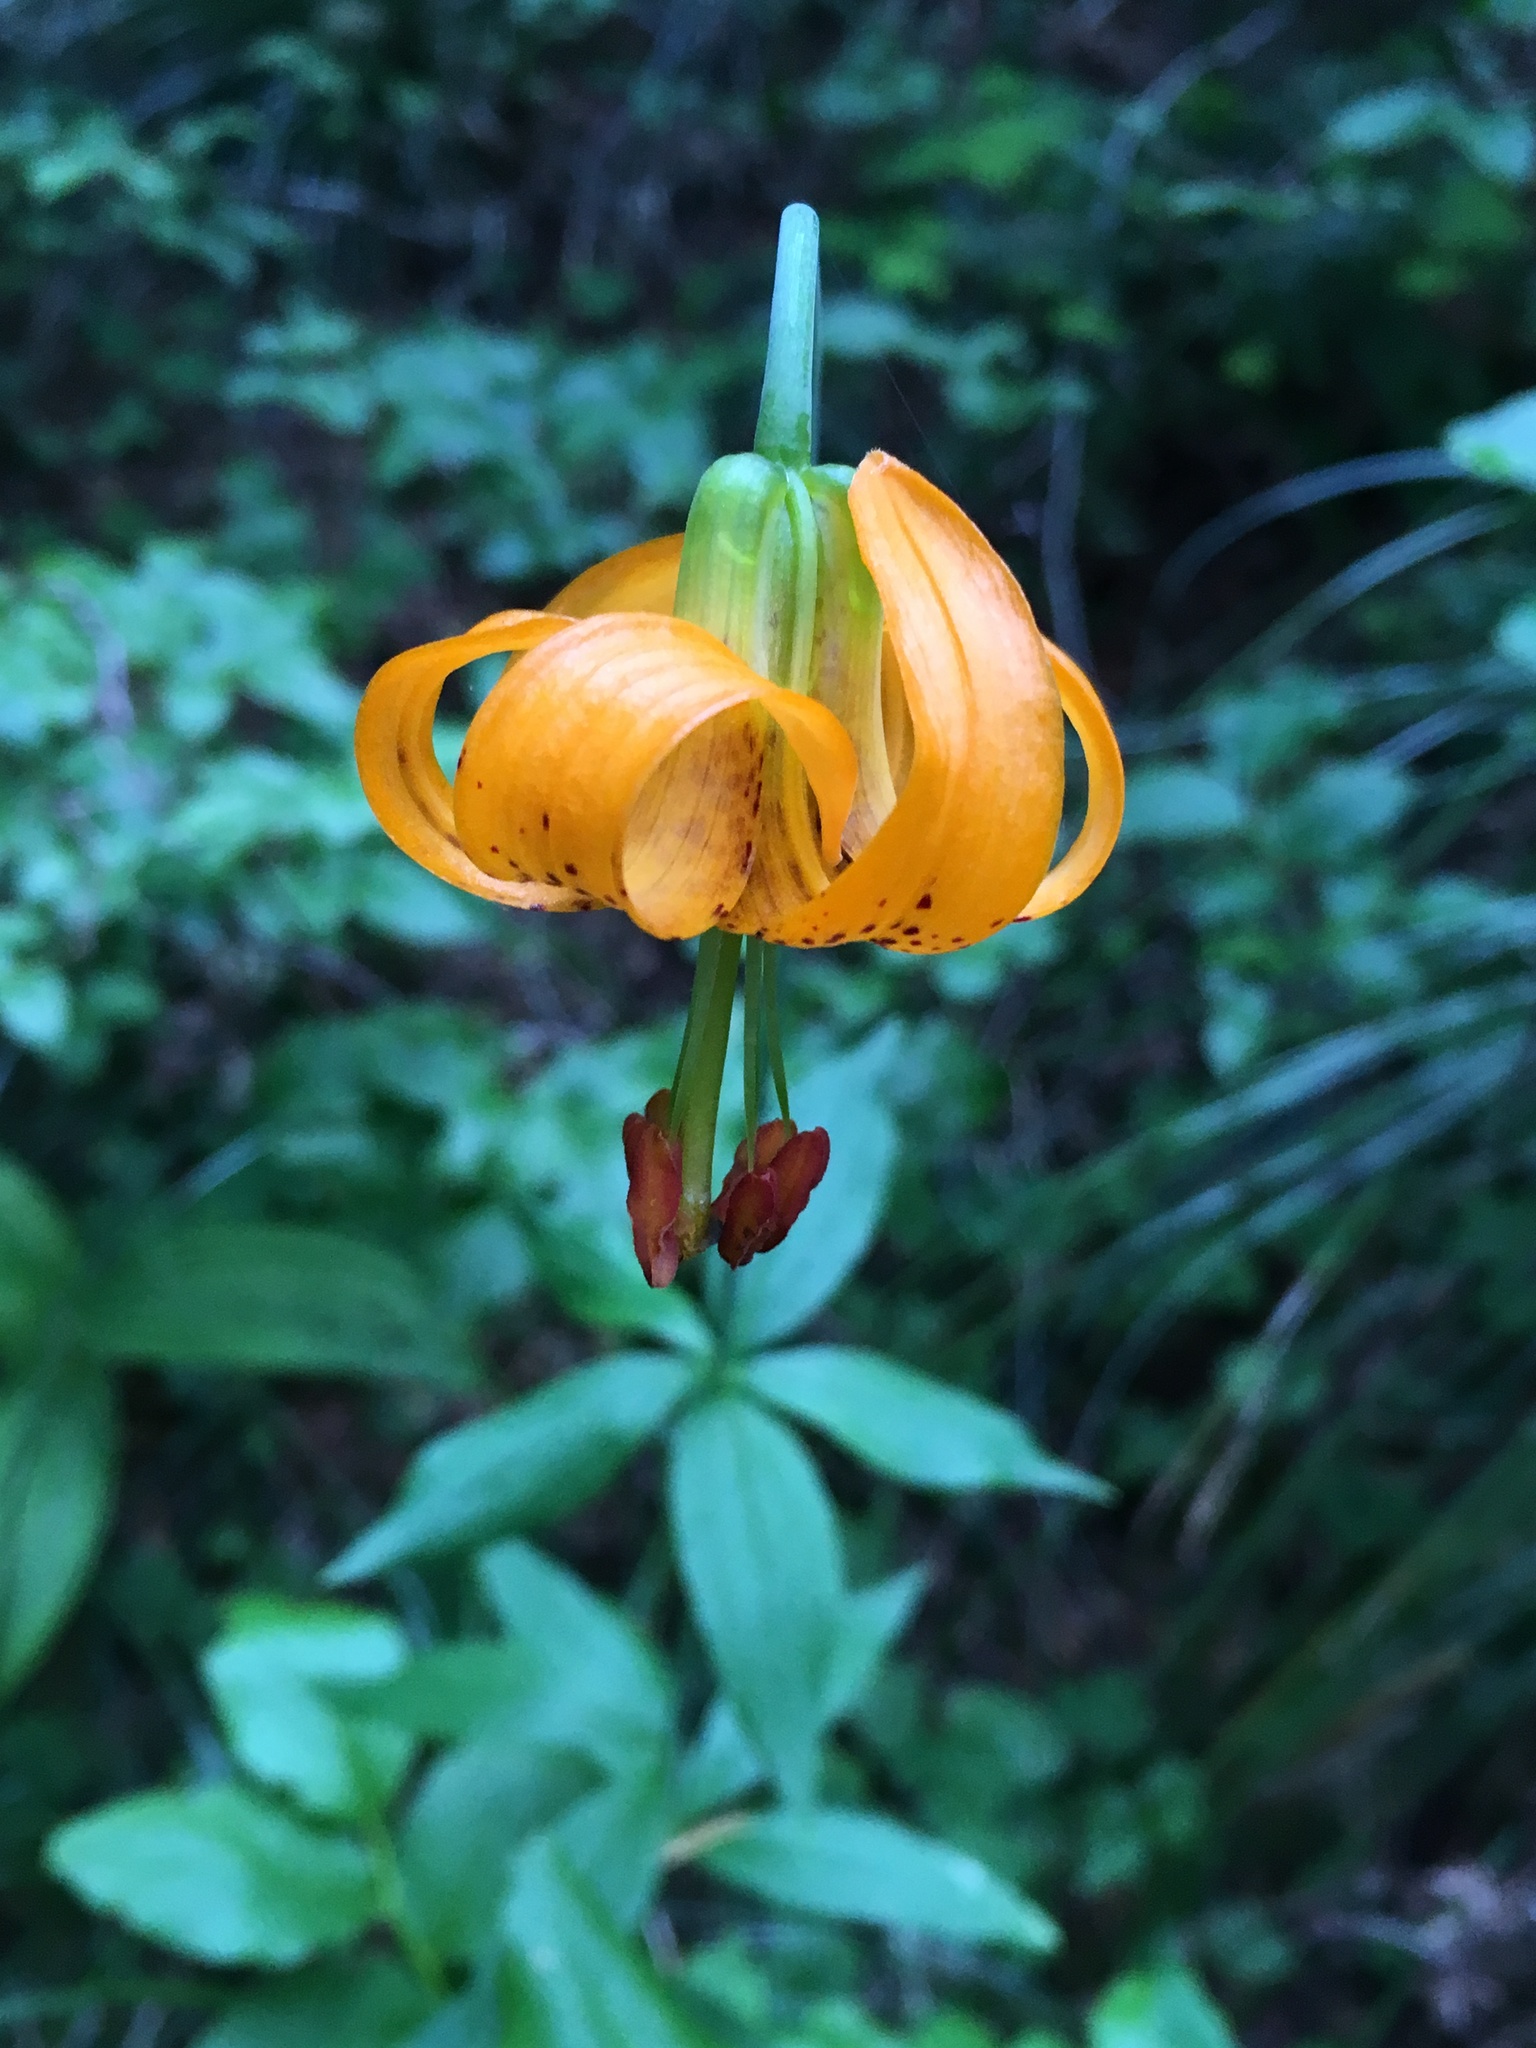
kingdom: Plantae
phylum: Tracheophyta
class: Liliopsida
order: Liliales
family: Liliaceae
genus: Lilium
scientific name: Lilium columbianum
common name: Columbia lily
